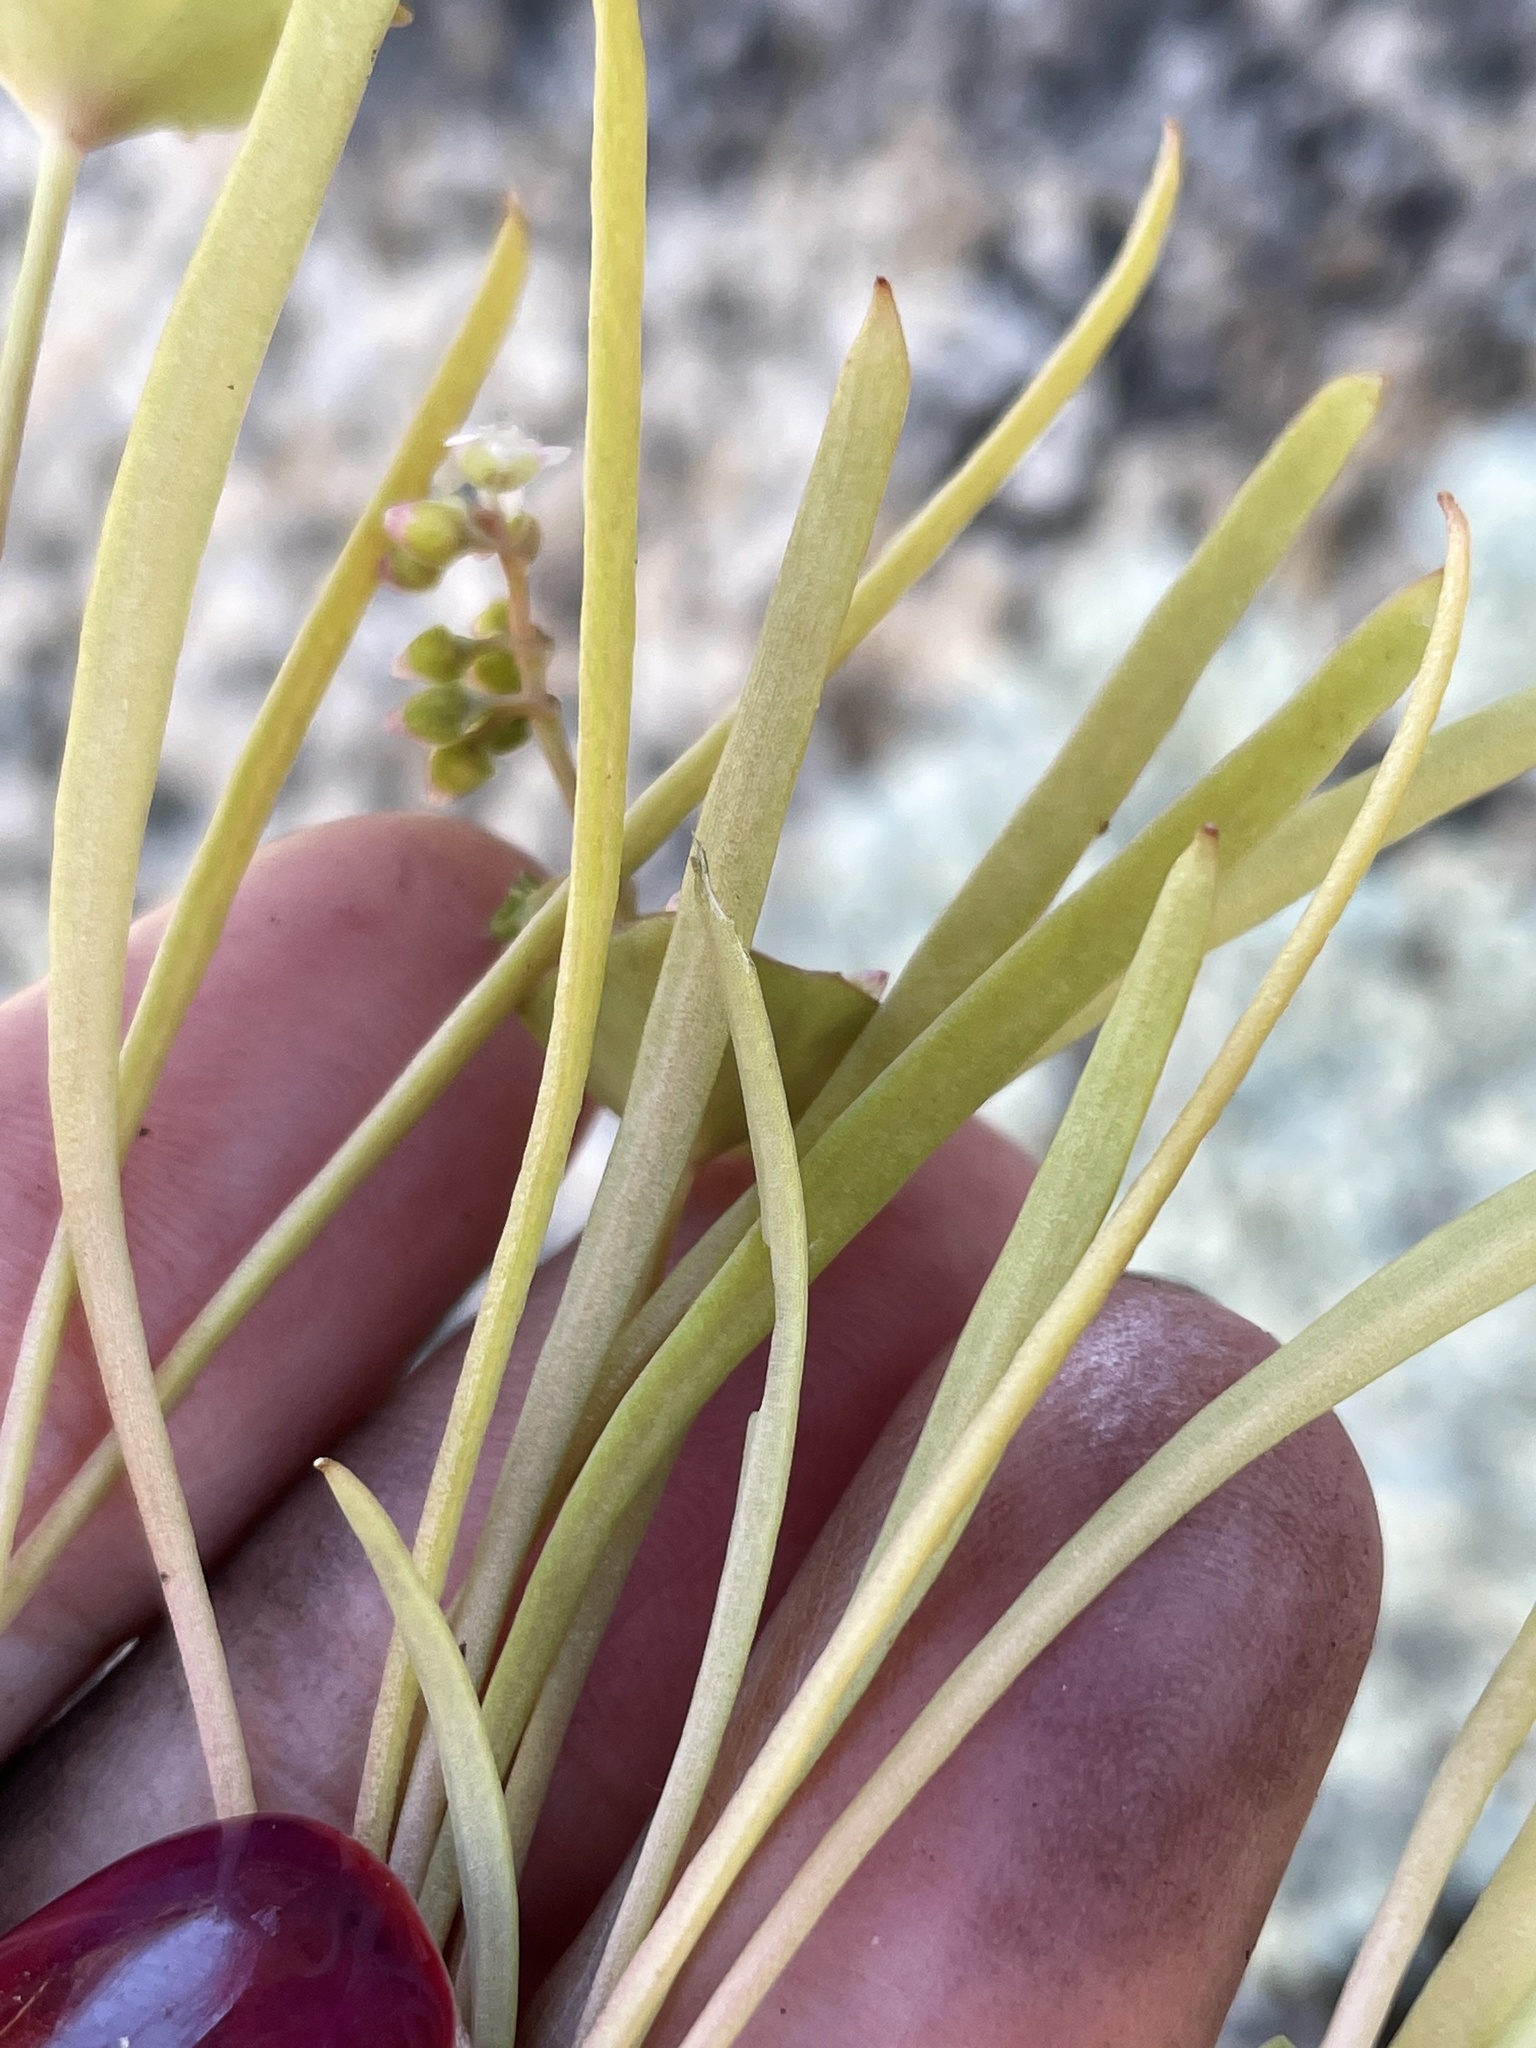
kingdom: Plantae
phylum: Tracheophyta
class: Magnoliopsida
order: Caryophyllales
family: Montiaceae
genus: Claytonia
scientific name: Claytonia parviflora
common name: Indian-lettuce
